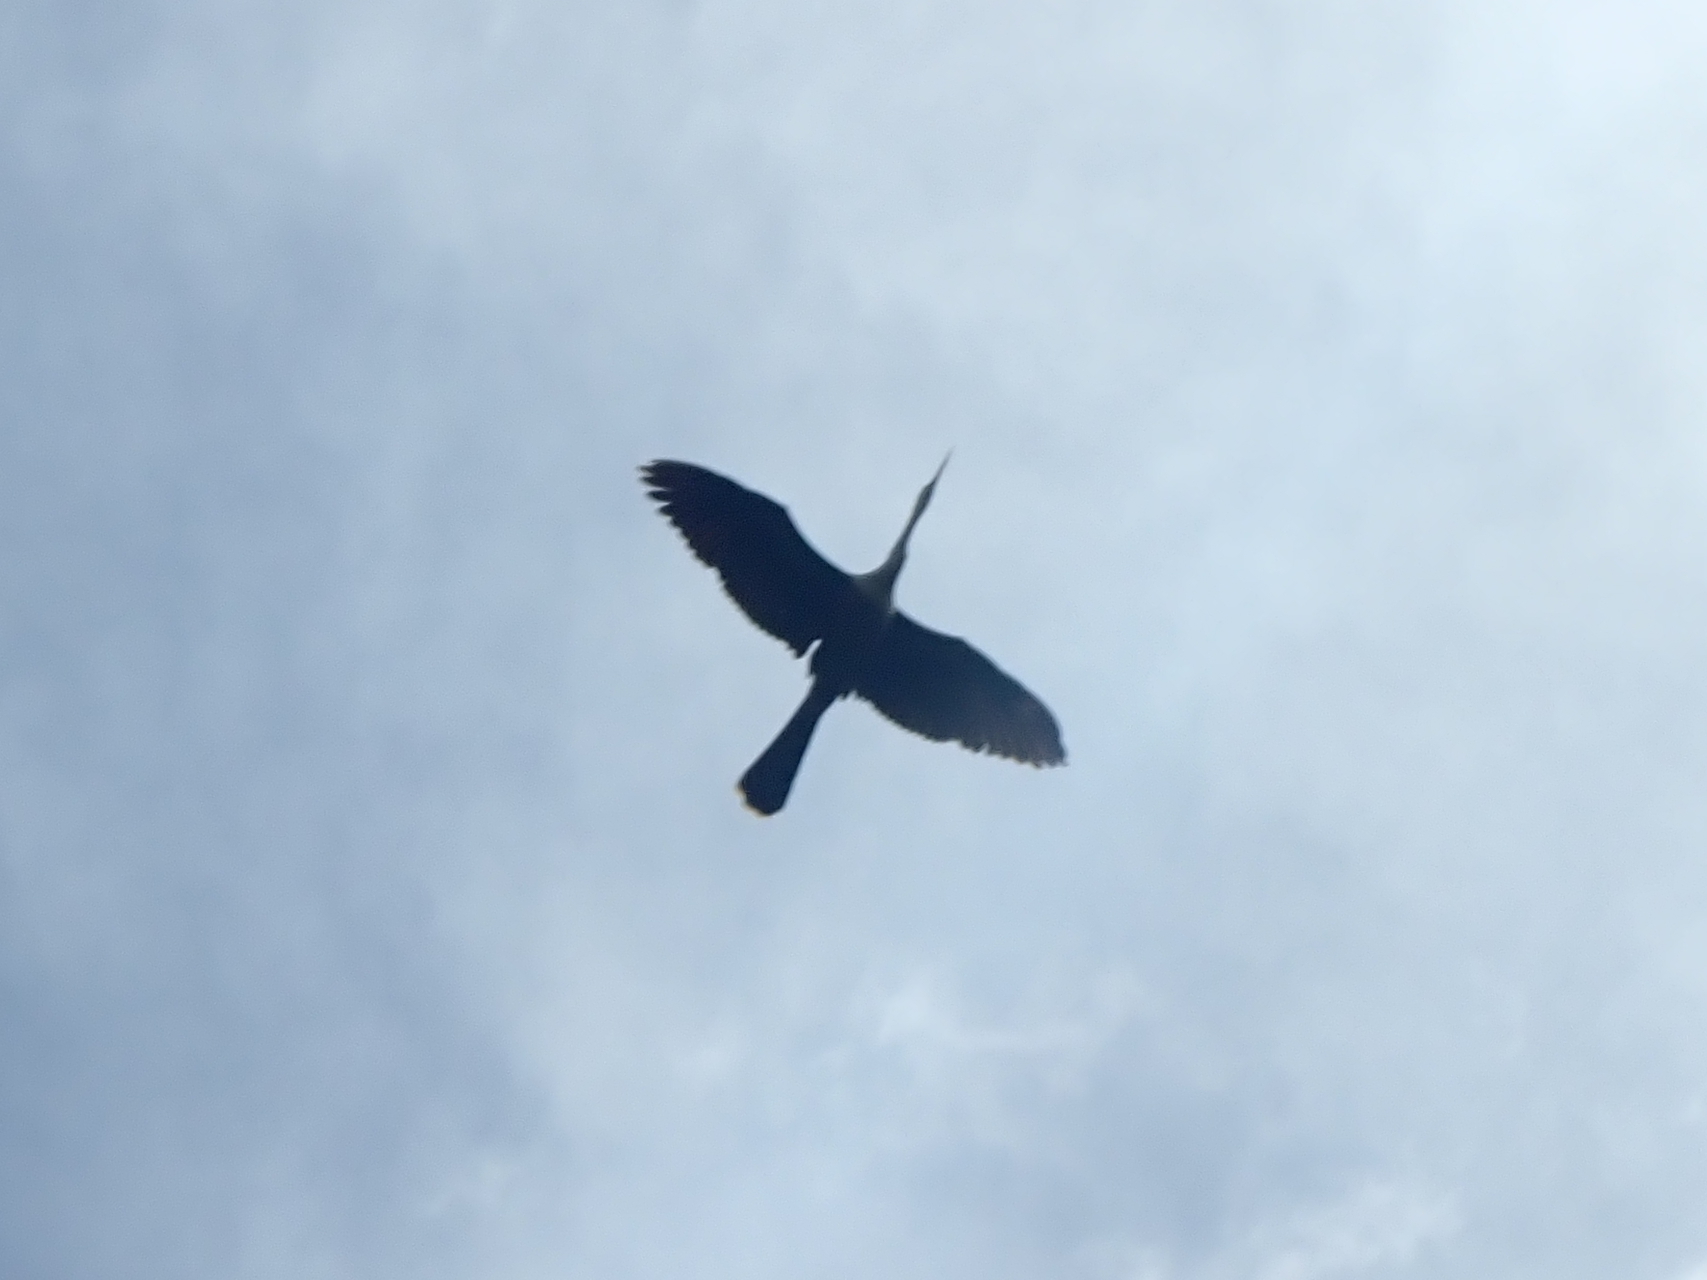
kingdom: Animalia
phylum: Chordata
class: Aves
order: Suliformes
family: Anhingidae
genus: Anhinga
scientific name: Anhinga anhinga
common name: Anhinga
